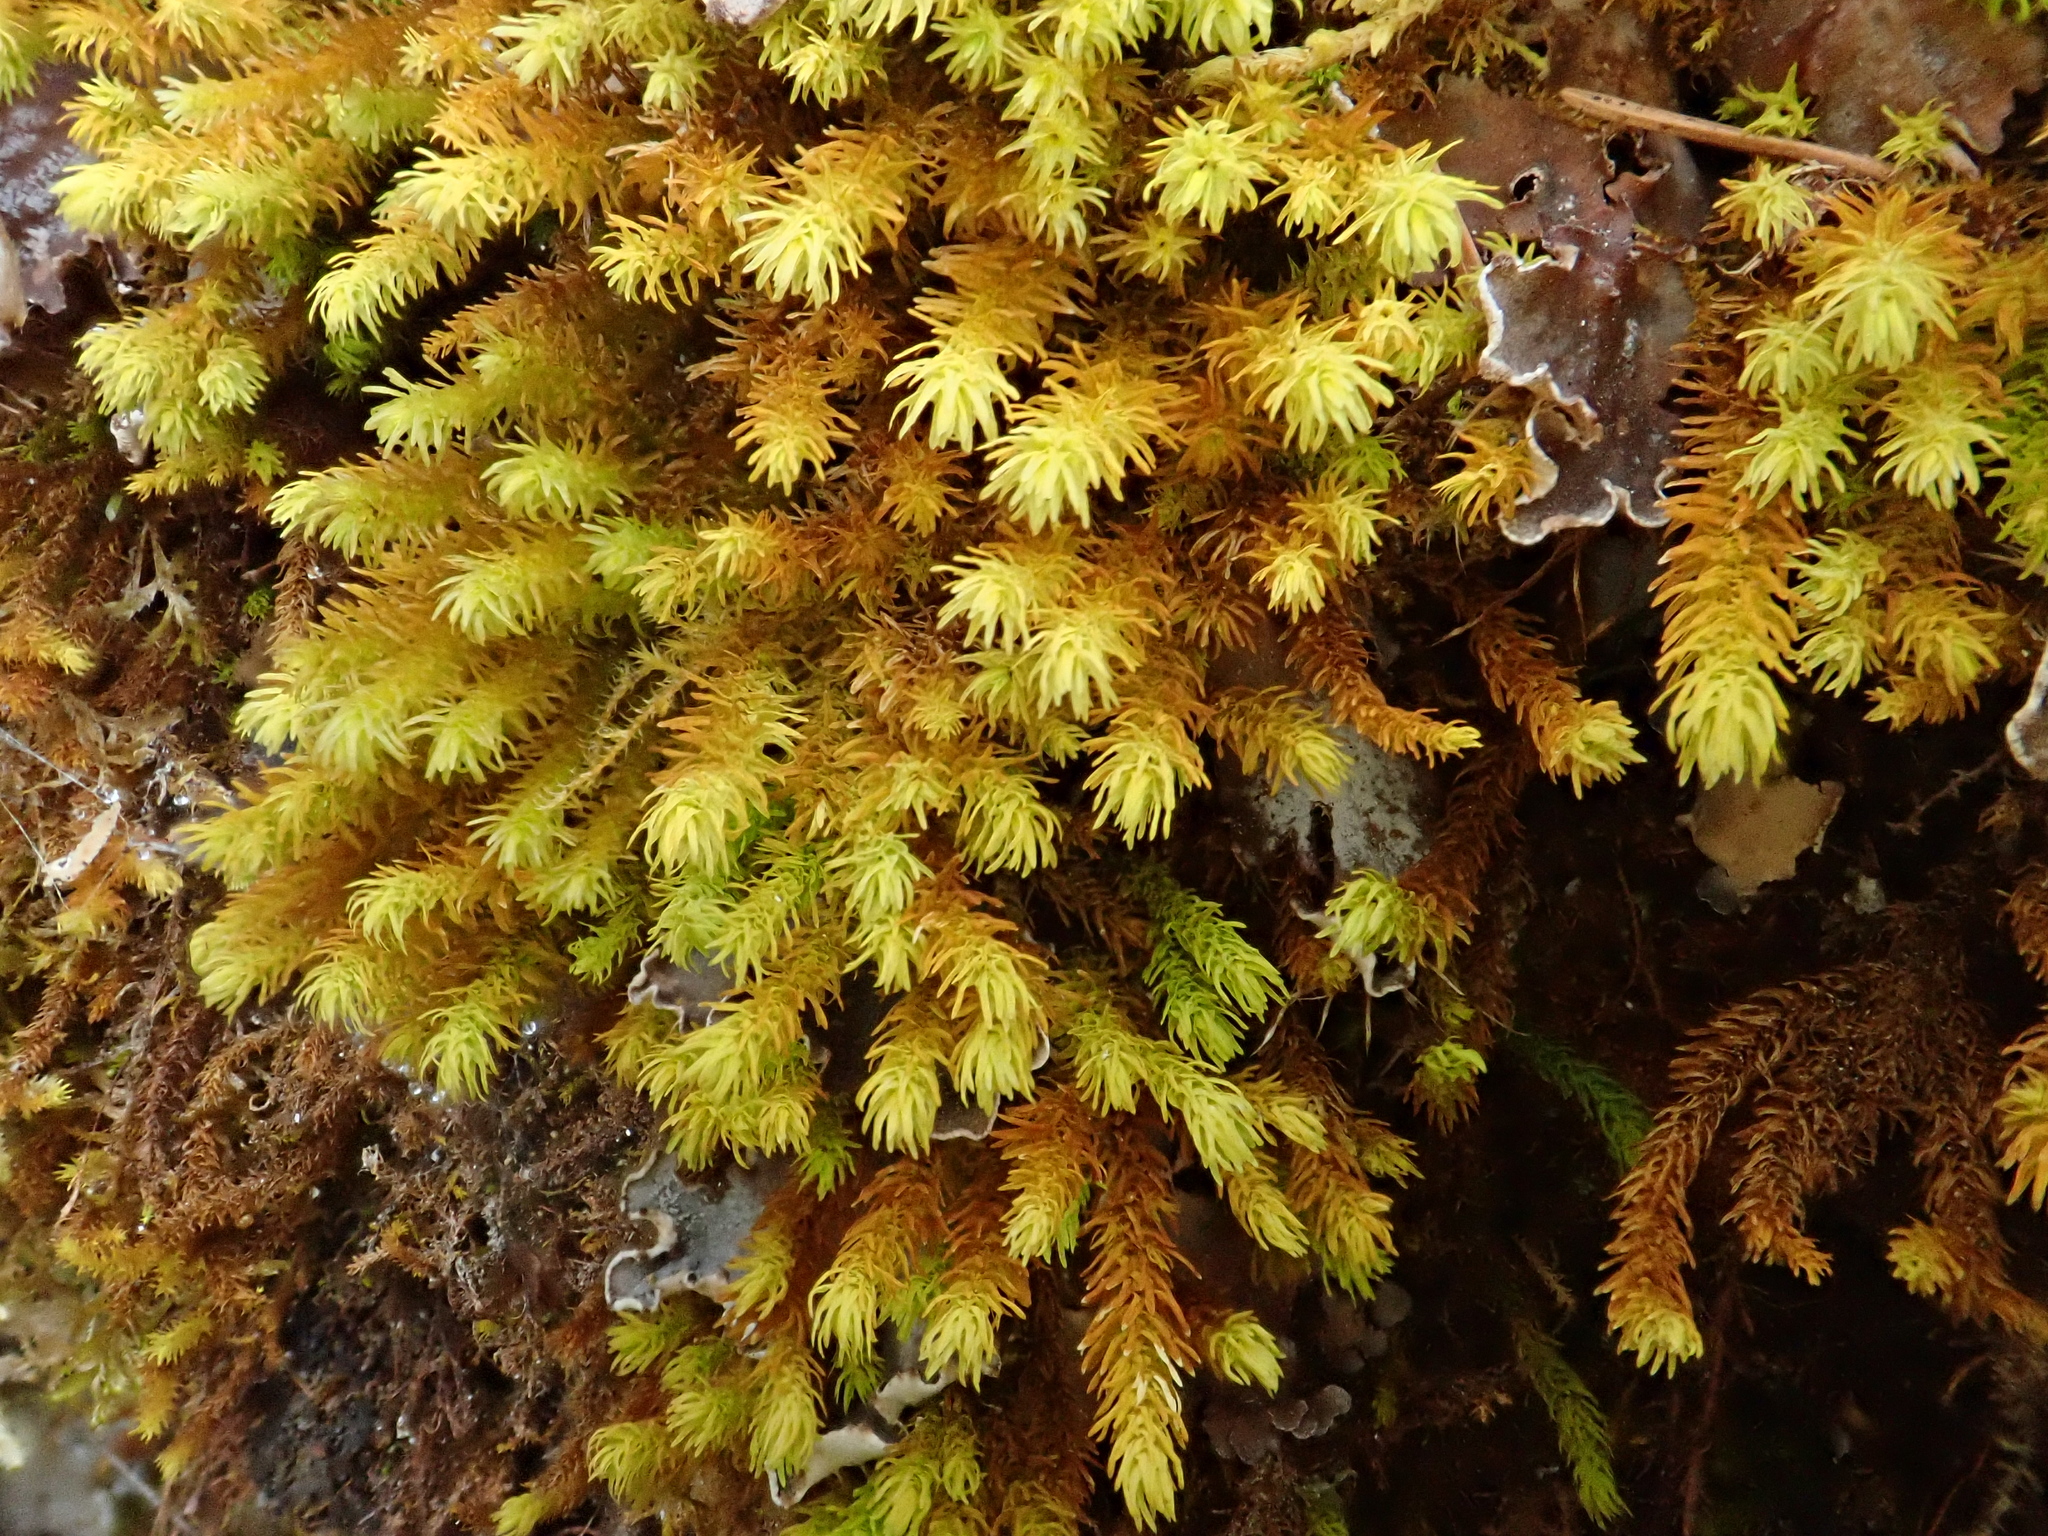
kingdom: Plantae
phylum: Bryophyta
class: Bryopsida
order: Hypnales
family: Anomodontaceae
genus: Anomodon
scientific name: Anomodon viticulosus
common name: Tall anomodon
